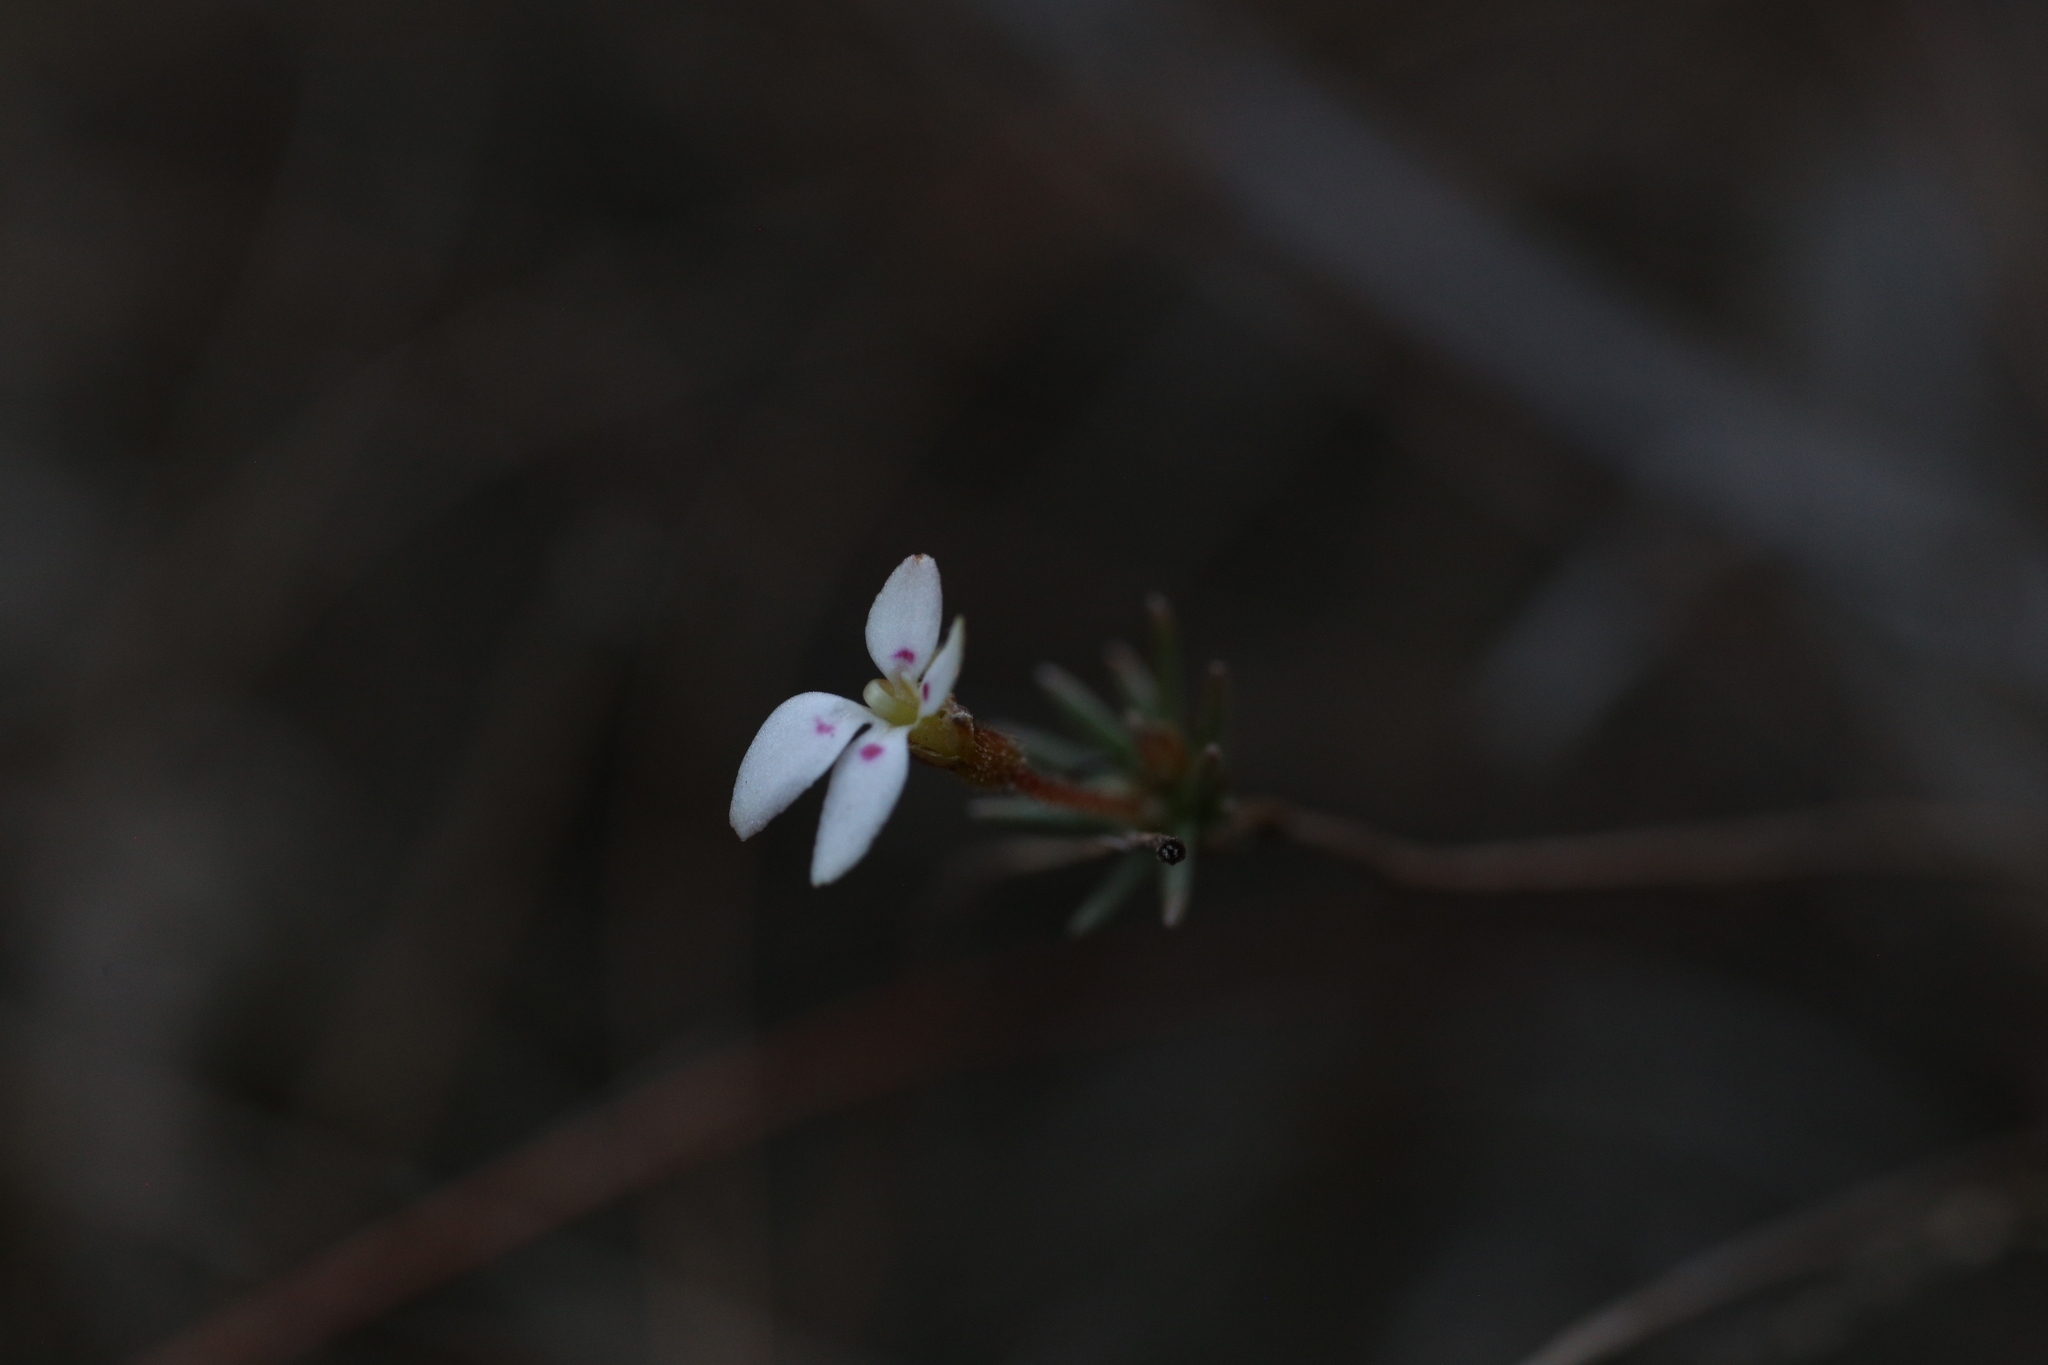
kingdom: Plantae
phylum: Tracheophyta
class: Magnoliopsida
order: Asterales
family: Stylidiaceae
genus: Stylidium
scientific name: Stylidium repens
